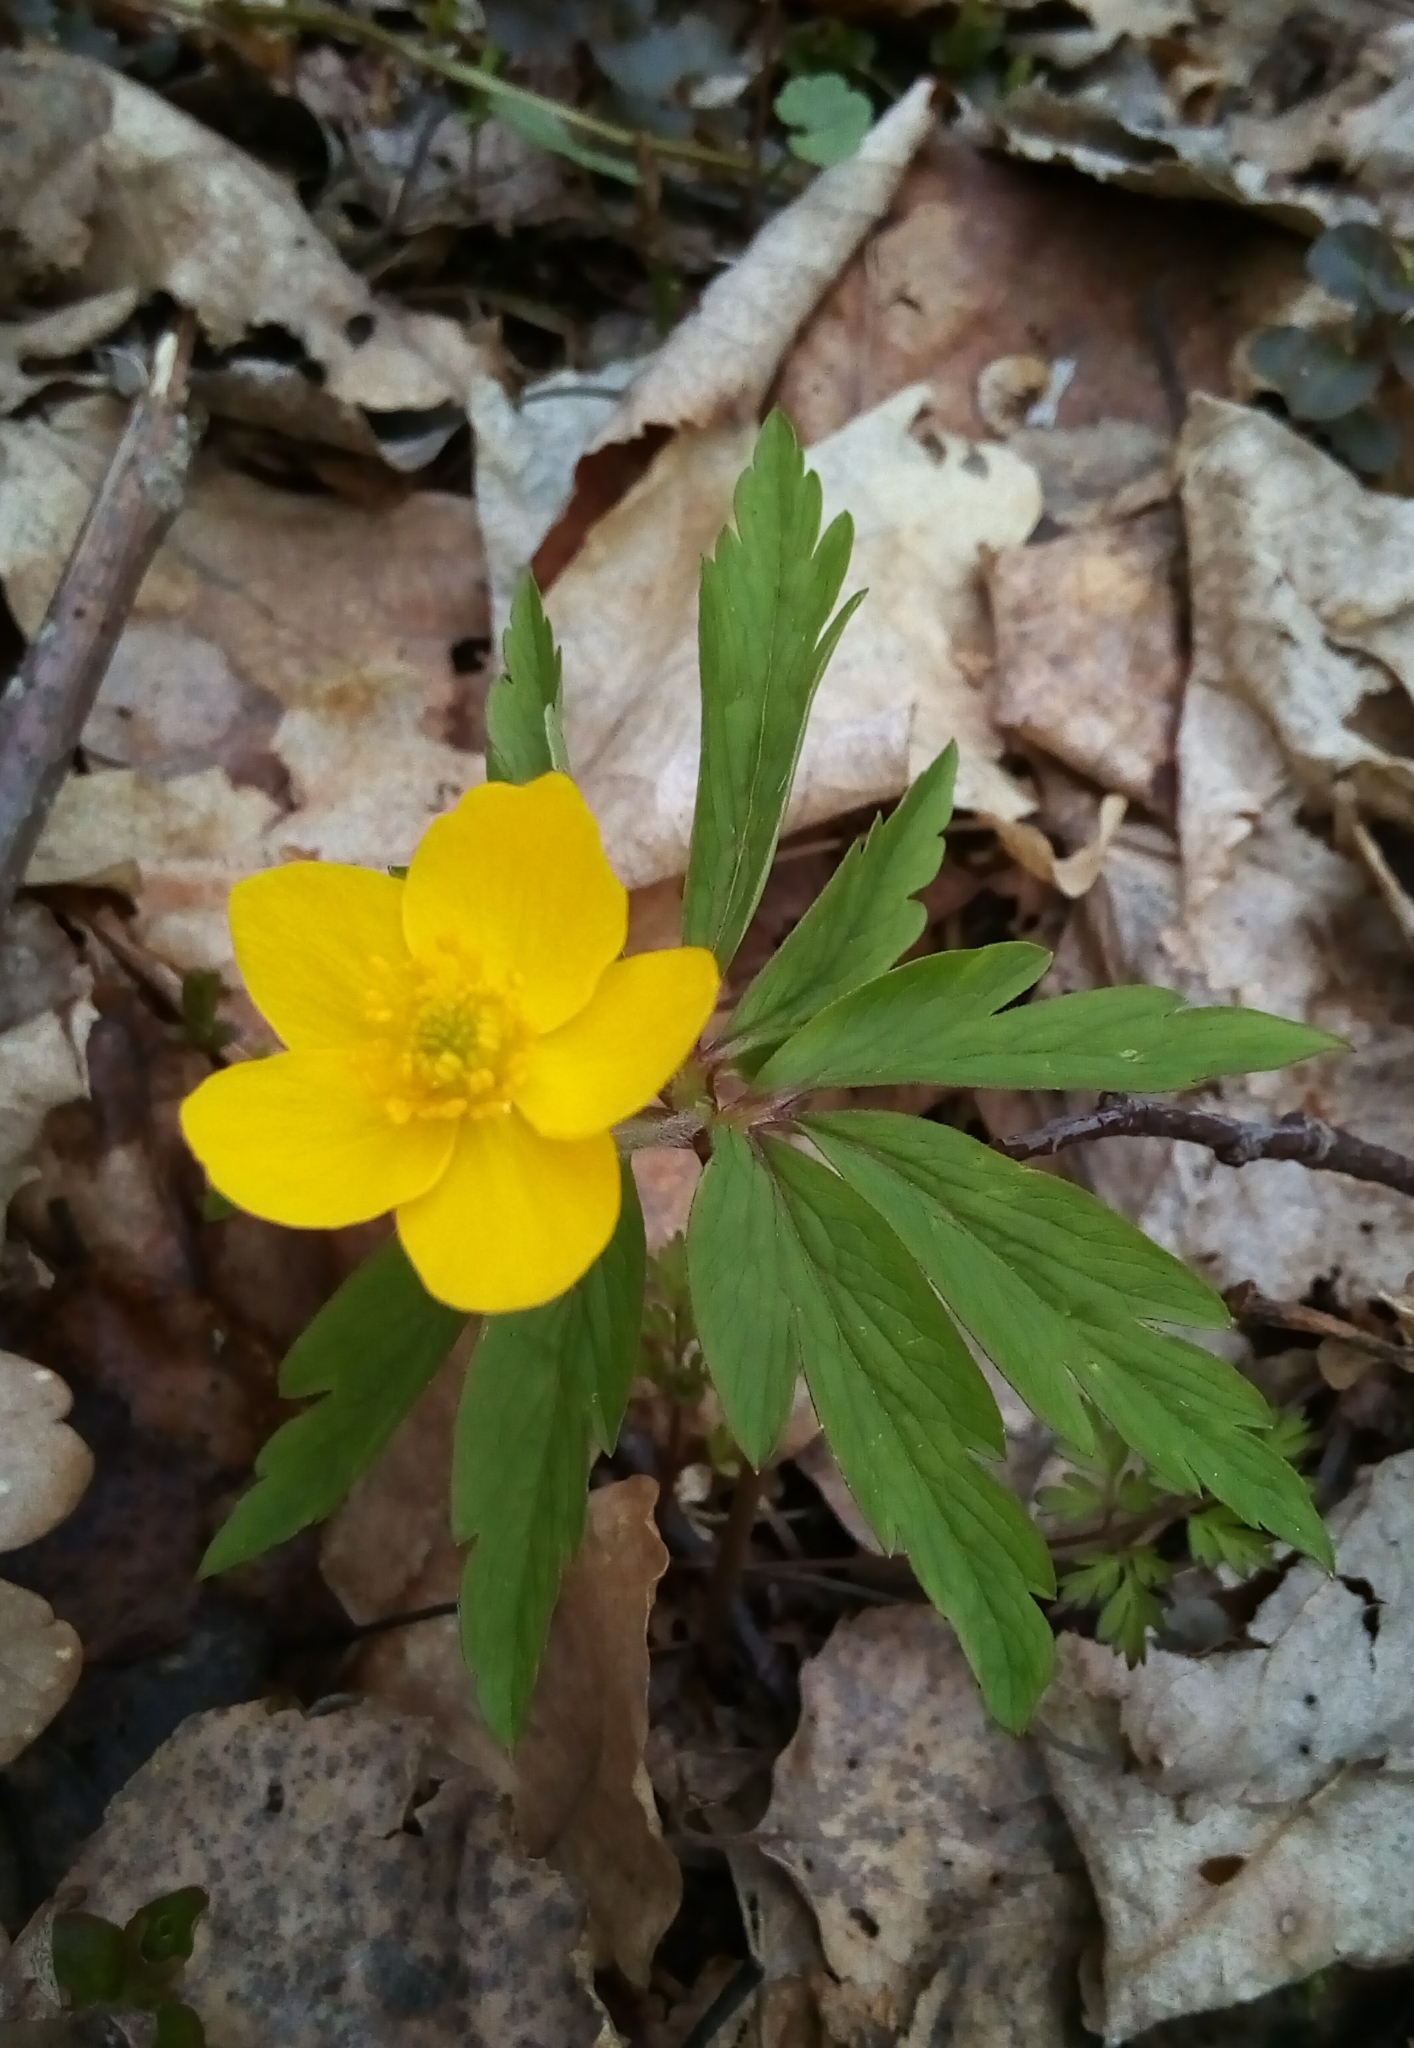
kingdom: Plantae
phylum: Tracheophyta
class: Magnoliopsida
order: Ranunculales
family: Ranunculaceae
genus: Anemone
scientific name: Anemone ranunculoides
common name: Yellow anemone
